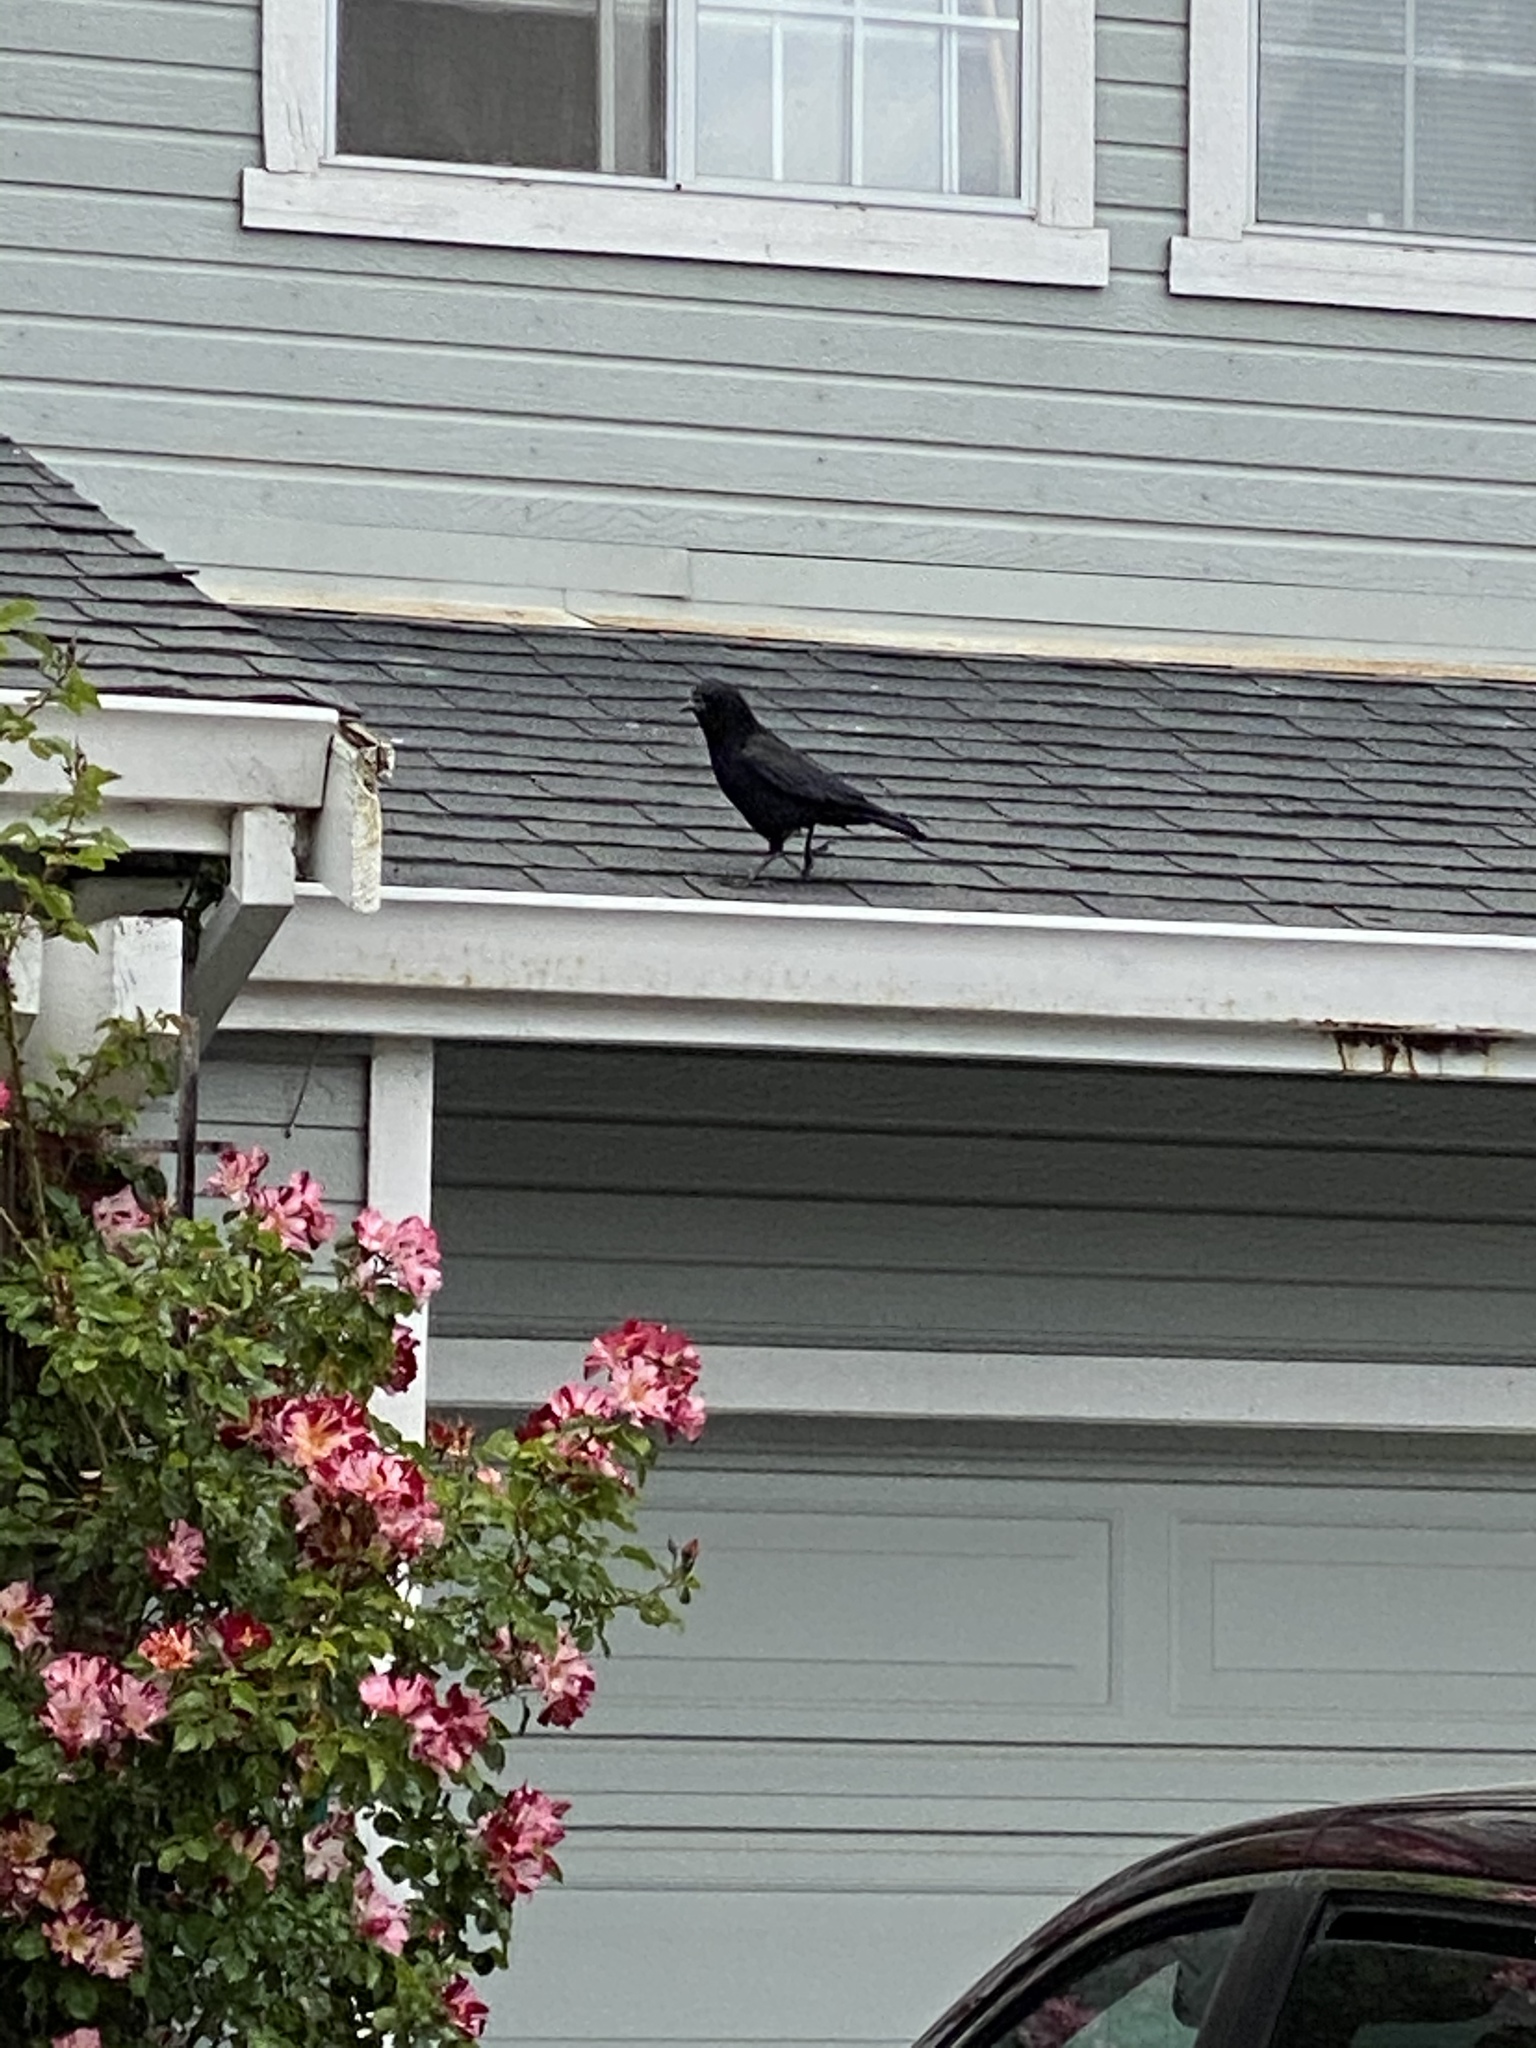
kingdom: Animalia
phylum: Chordata
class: Aves
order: Passeriformes
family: Corvidae
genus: Corvus
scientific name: Corvus brachyrhynchos
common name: American crow
